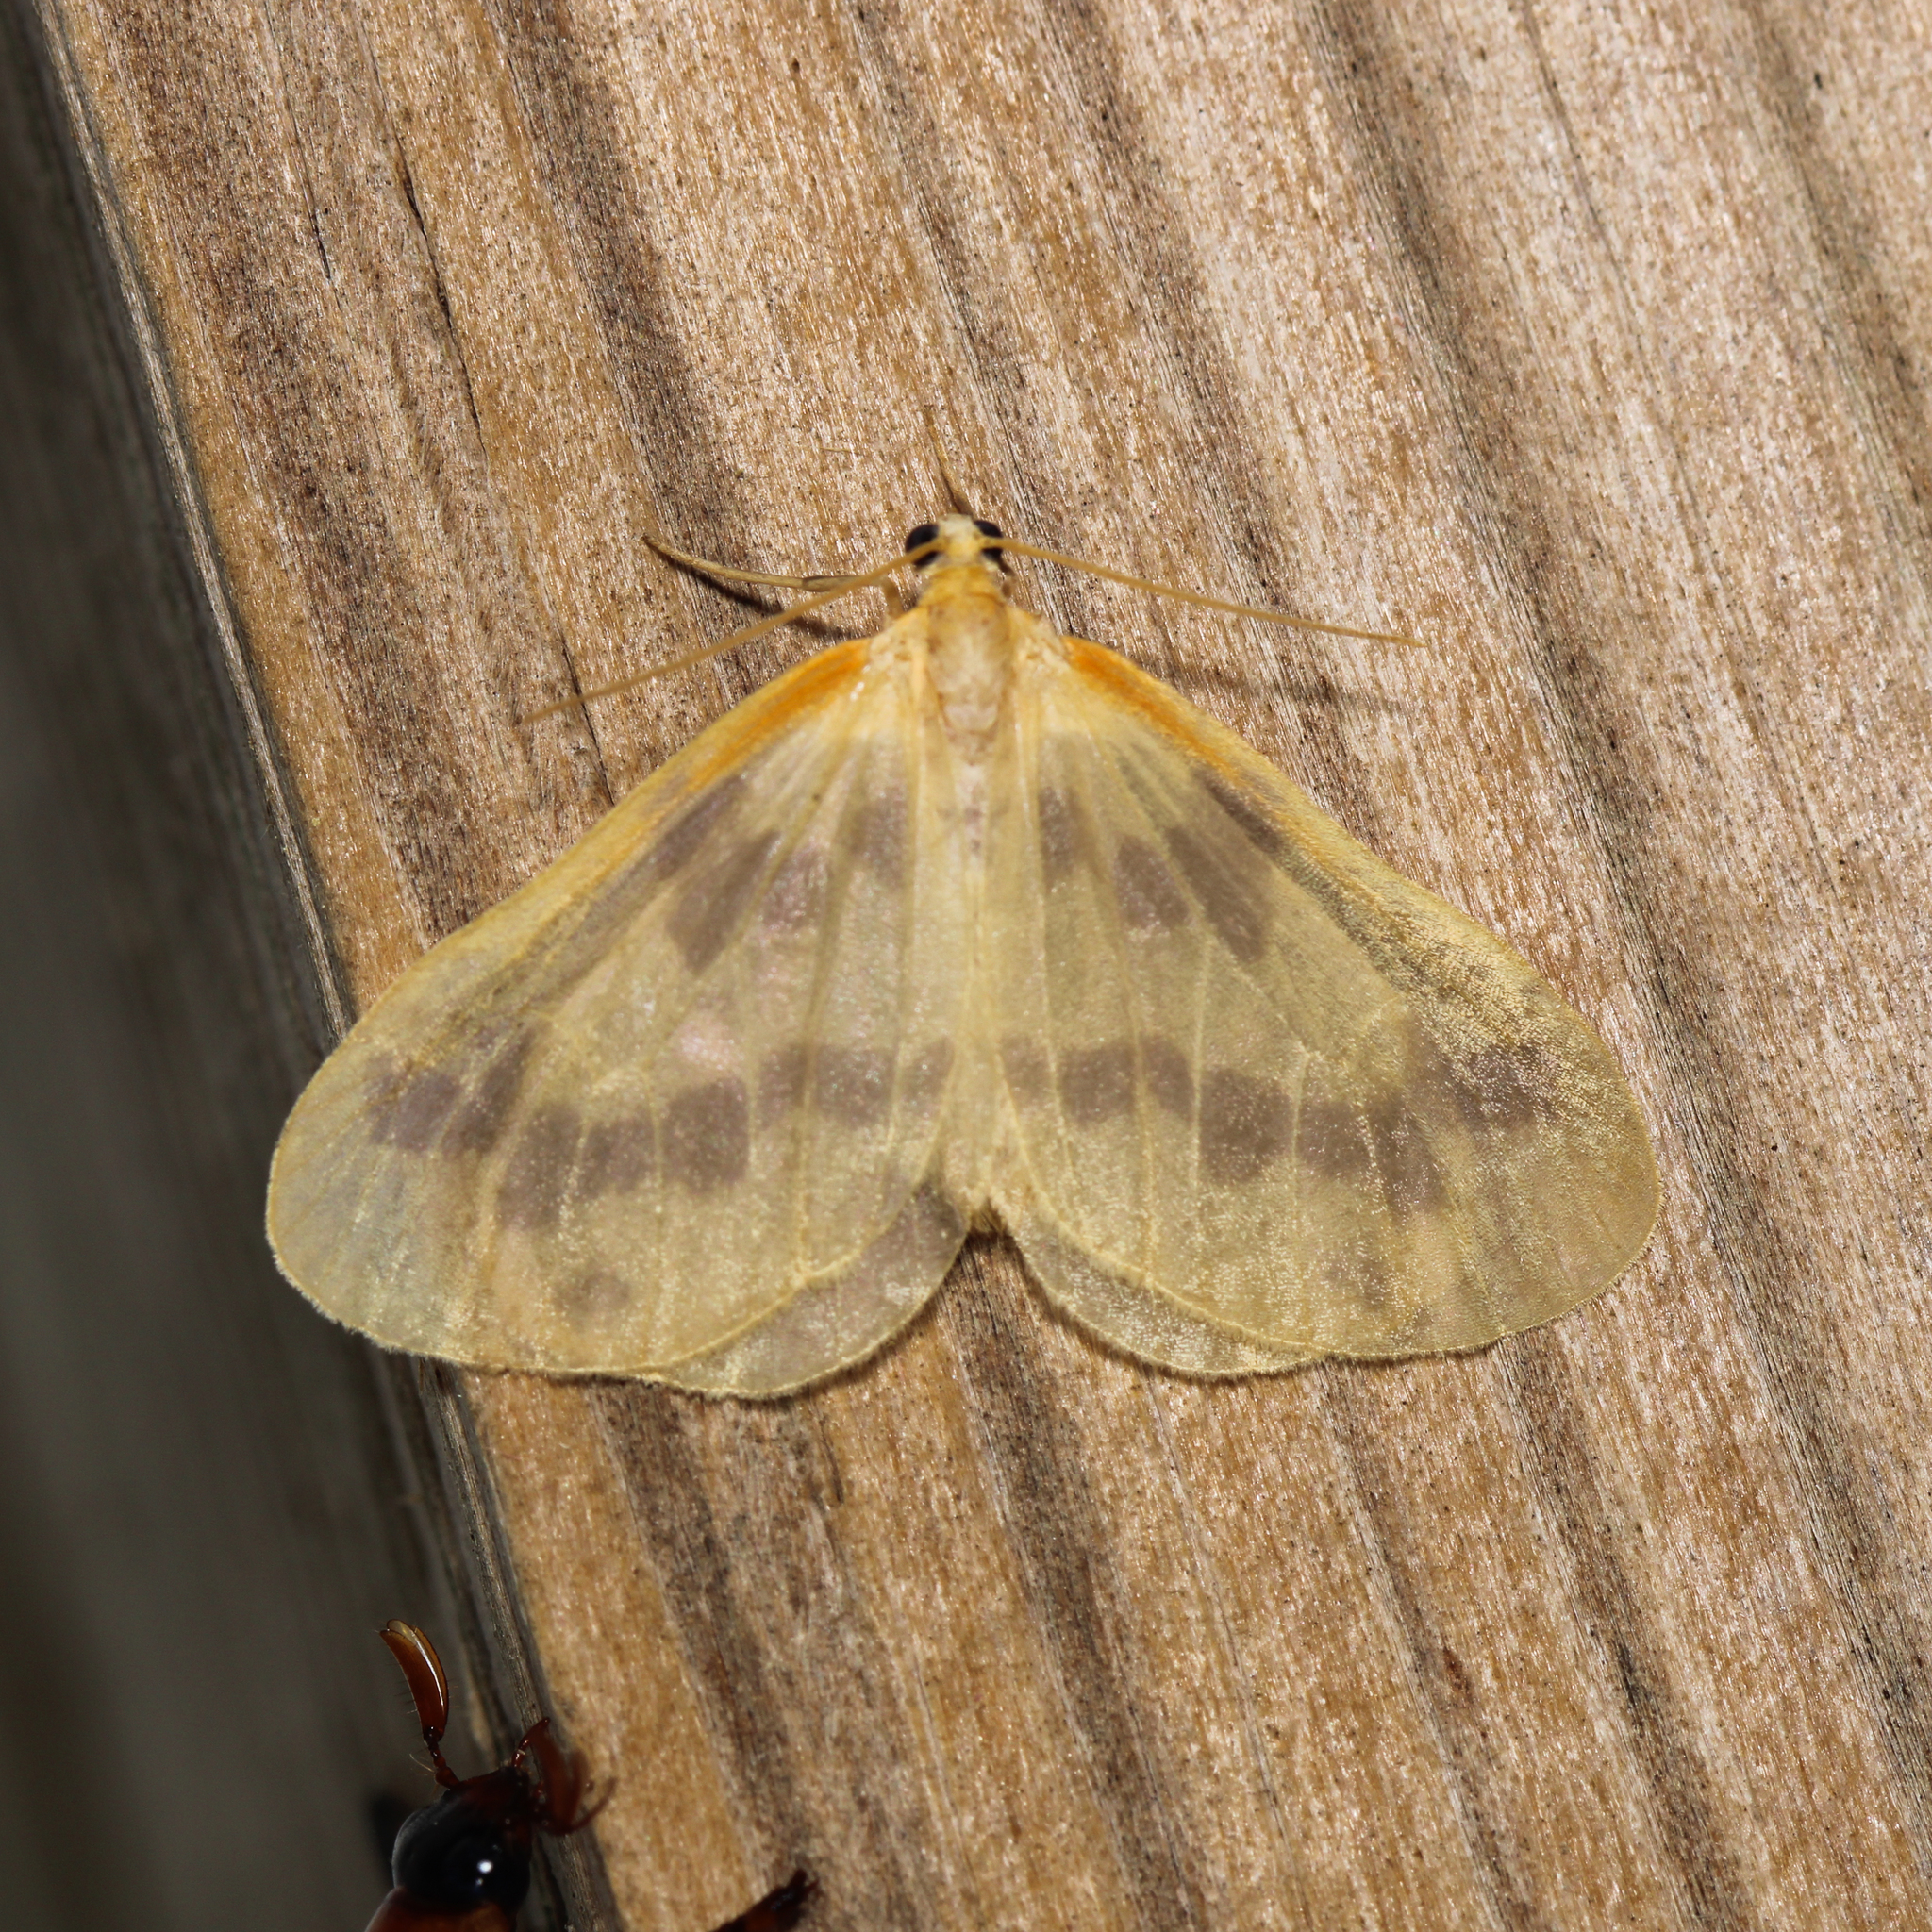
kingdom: Animalia
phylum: Arthropoda
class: Insecta
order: Lepidoptera
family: Geometridae
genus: Eubaphe
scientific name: Eubaphe mendica
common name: Beggar
